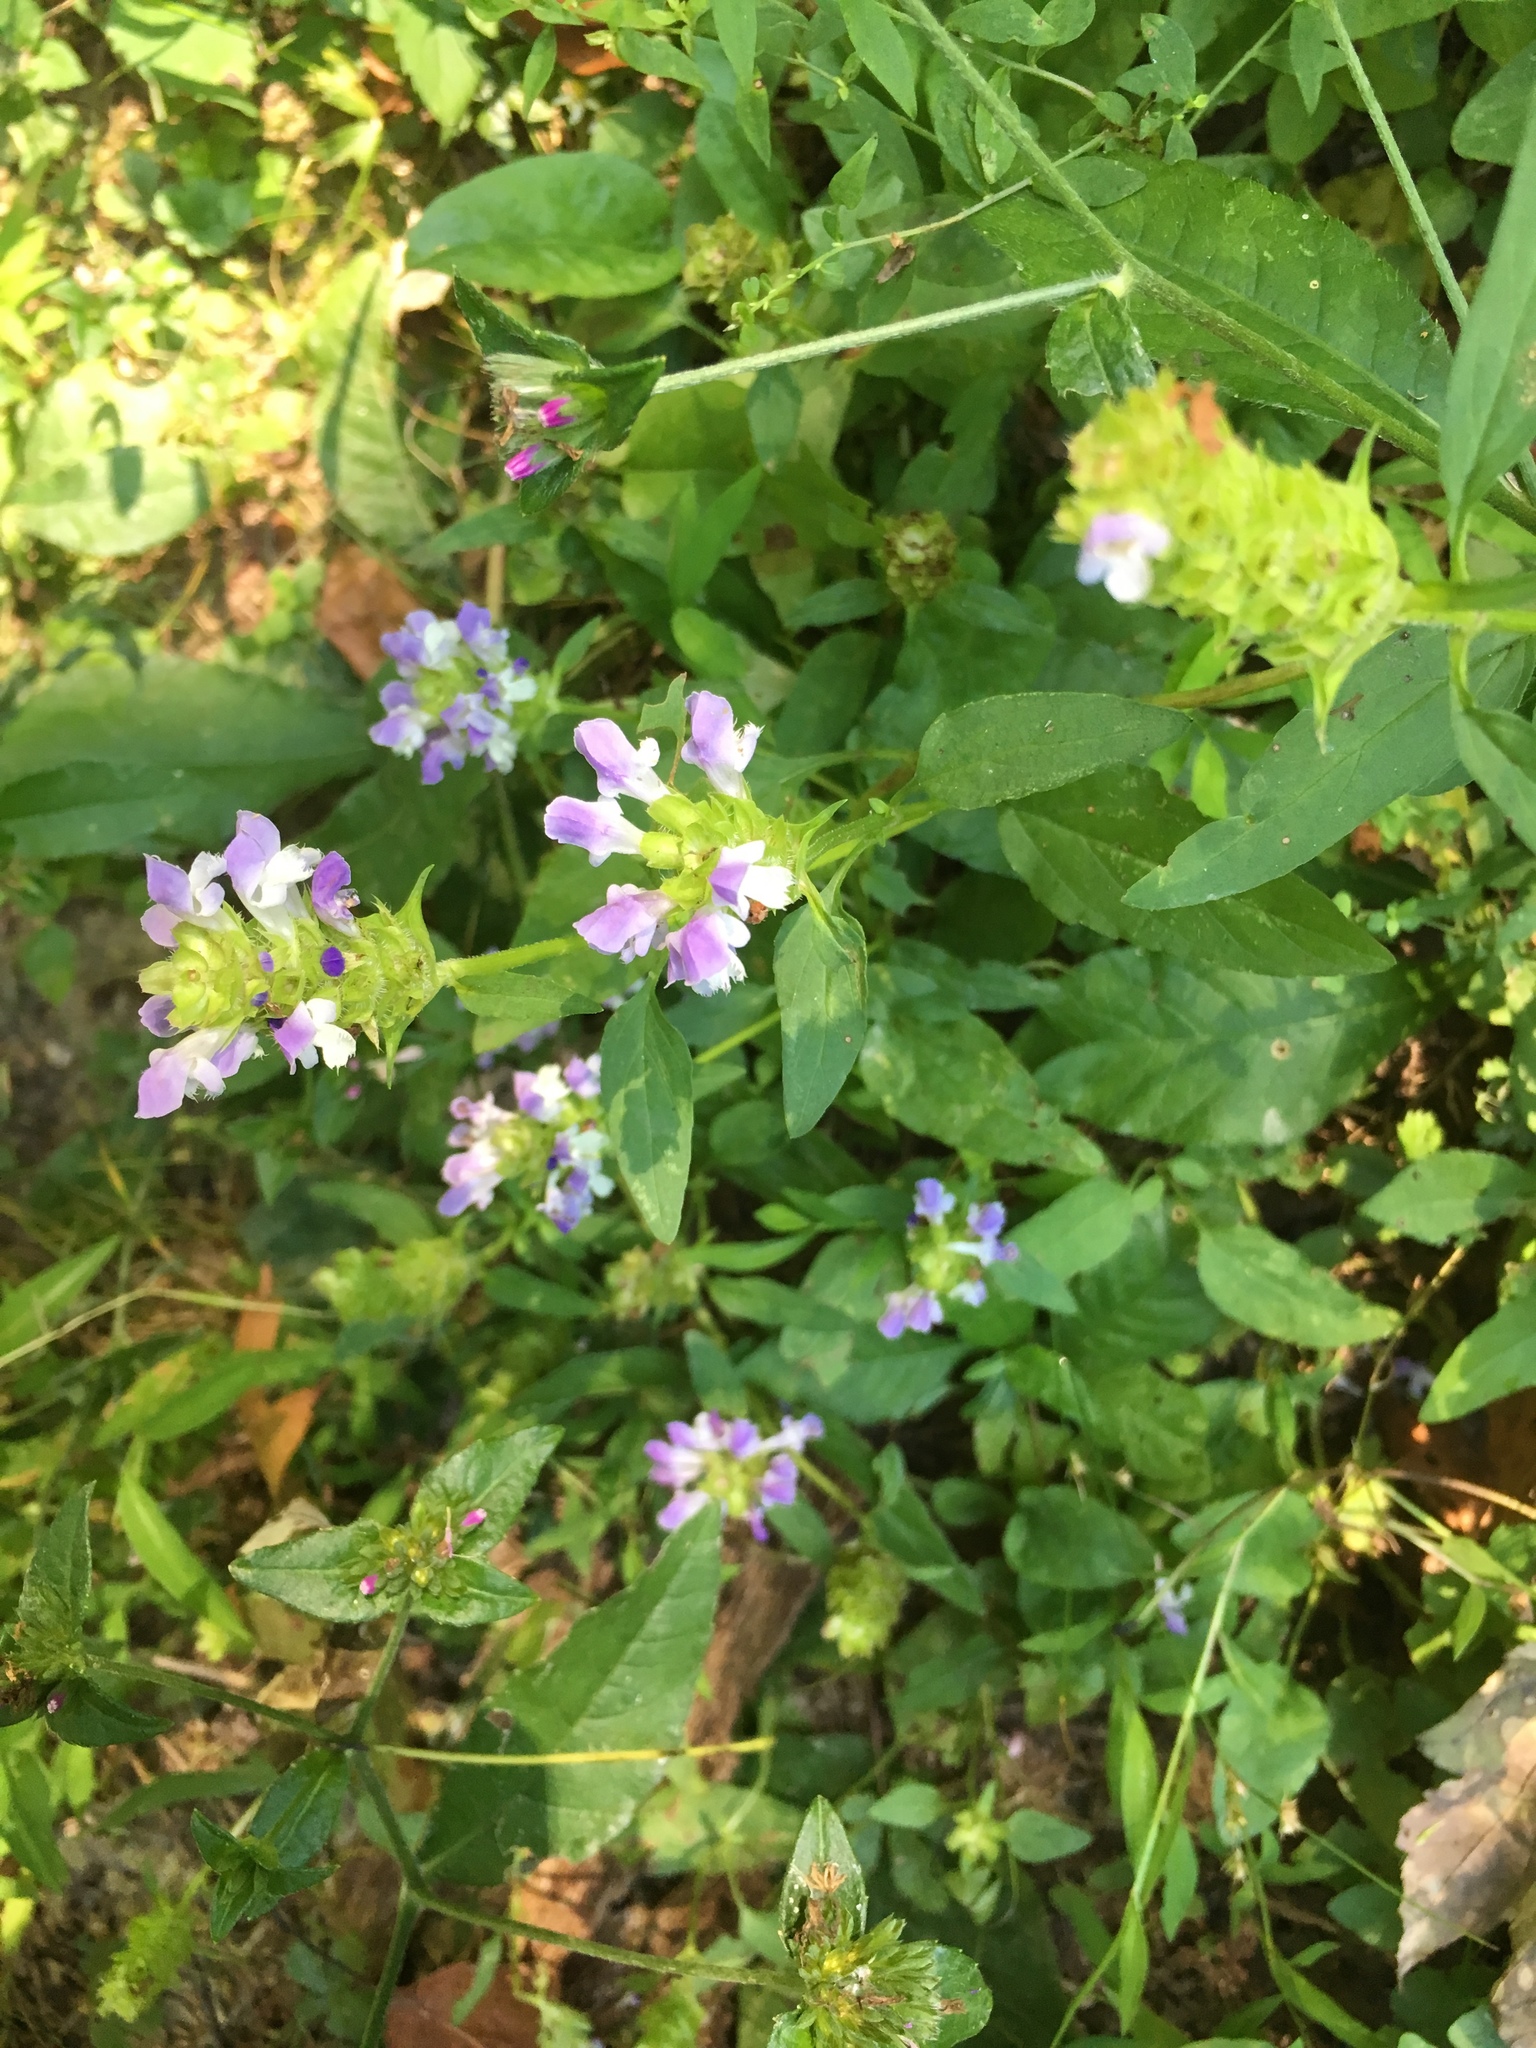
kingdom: Plantae
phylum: Tracheophyta
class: Magnoliopsida
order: Lamiales
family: Lamiaceae
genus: Prunella
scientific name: Prunella vulgaris
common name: Heal-all
